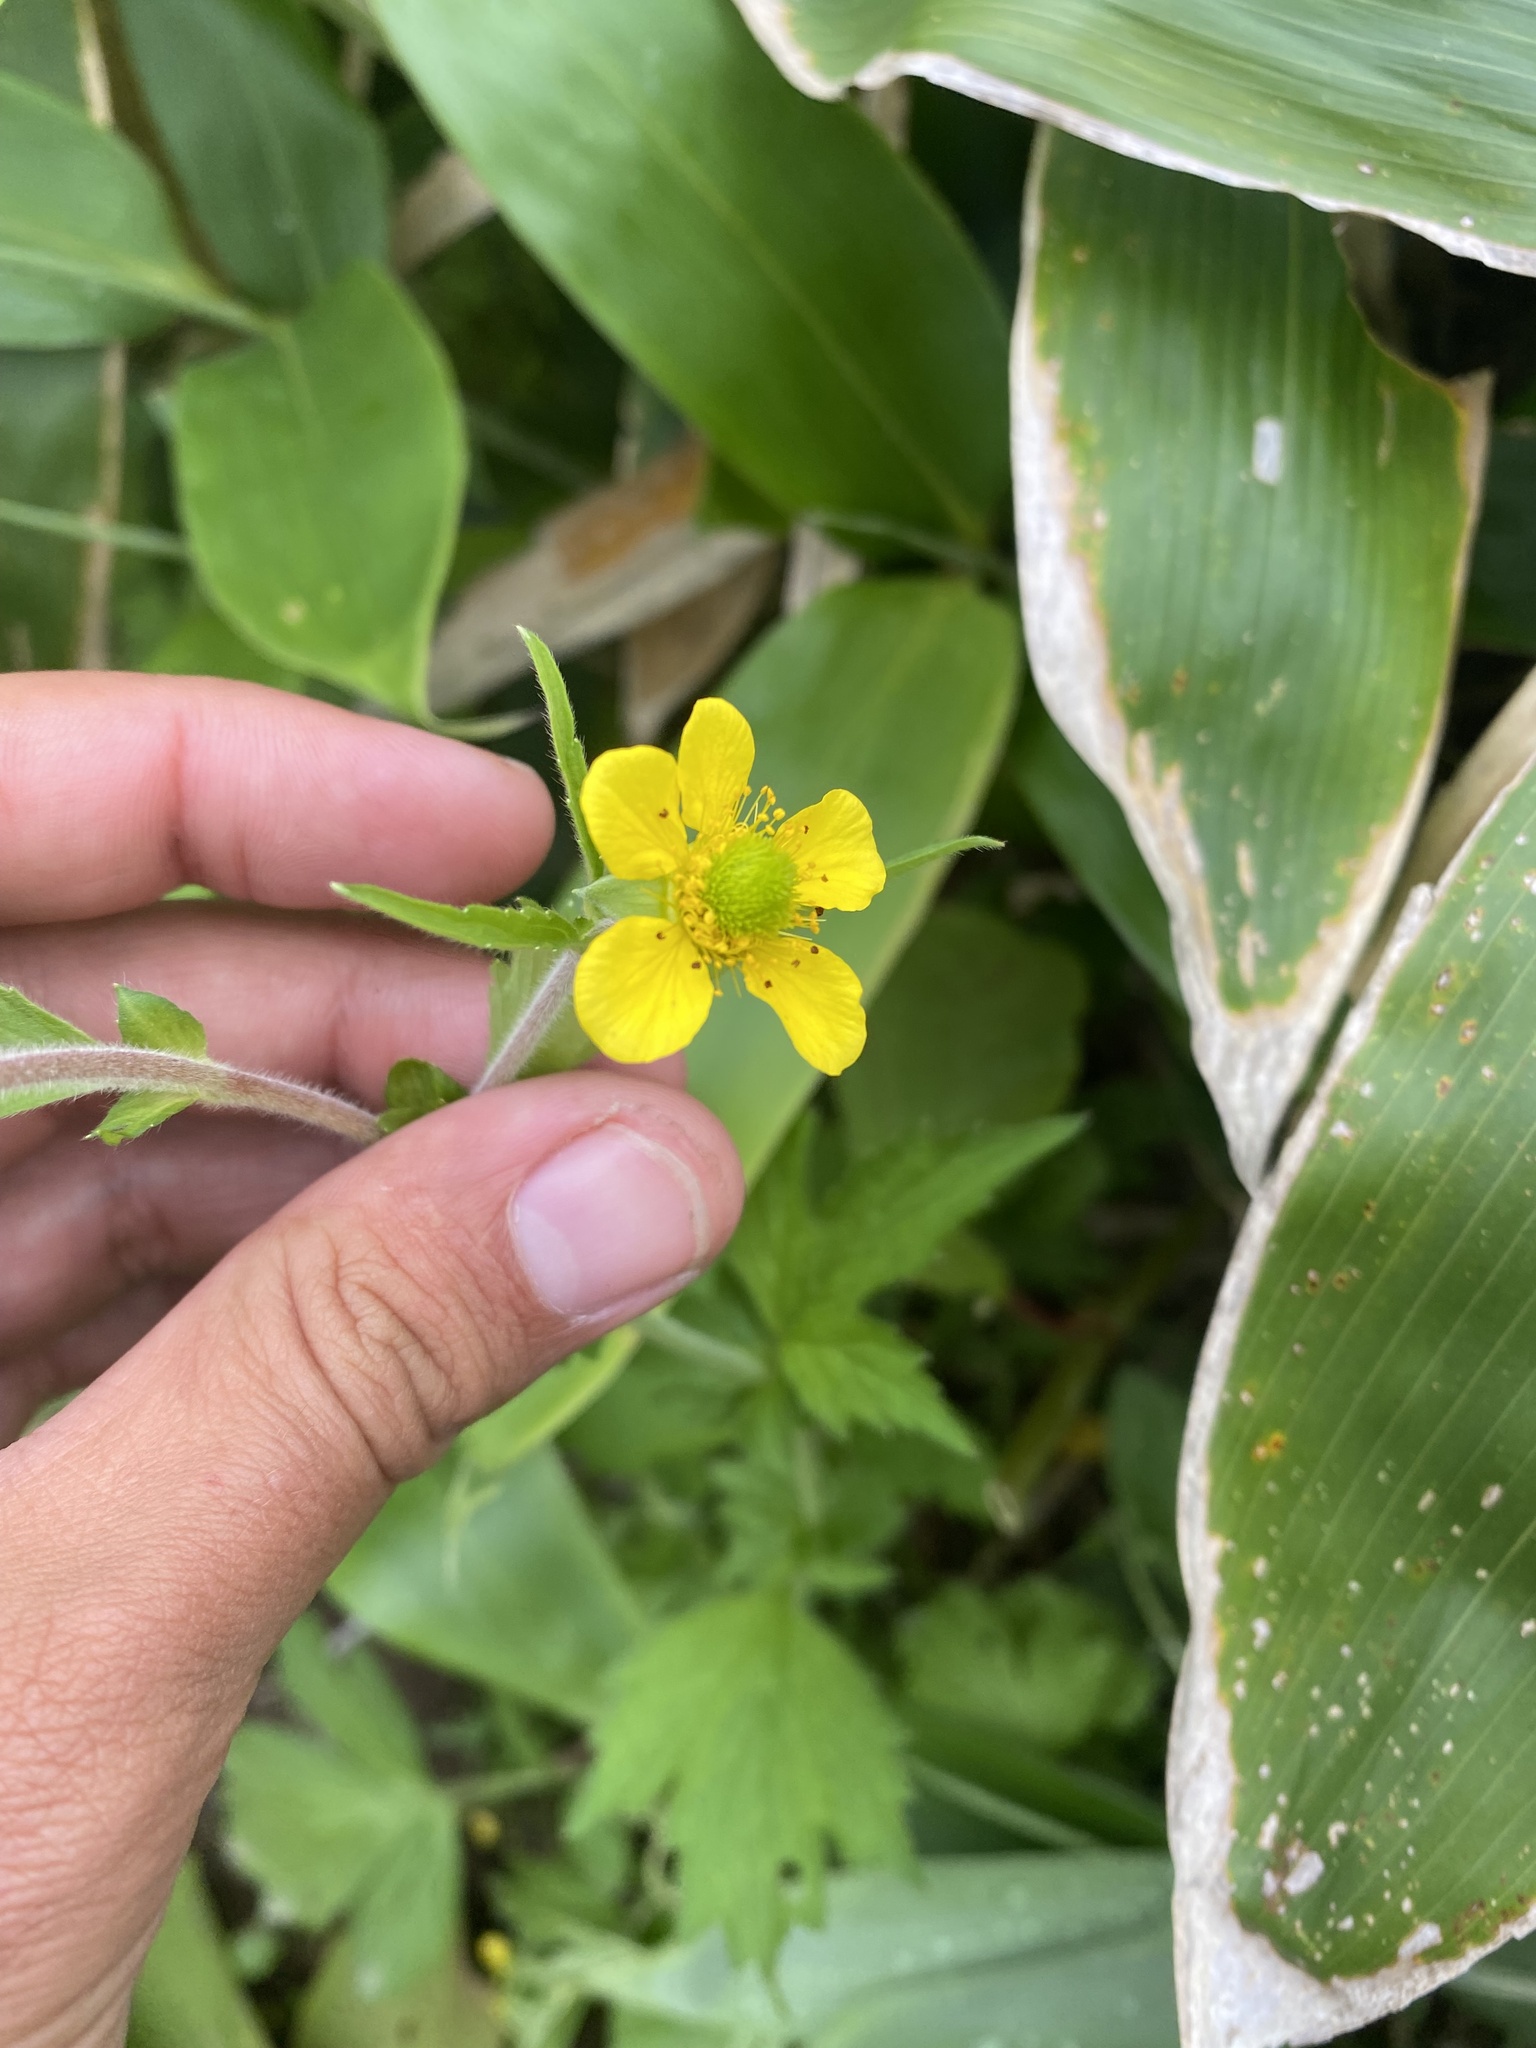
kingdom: Plantae
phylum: Tracheophyta
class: Magnoliopsida
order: Rosales
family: Rosaceae
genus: Geum
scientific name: Geum aleppicum
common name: Yellow avens
